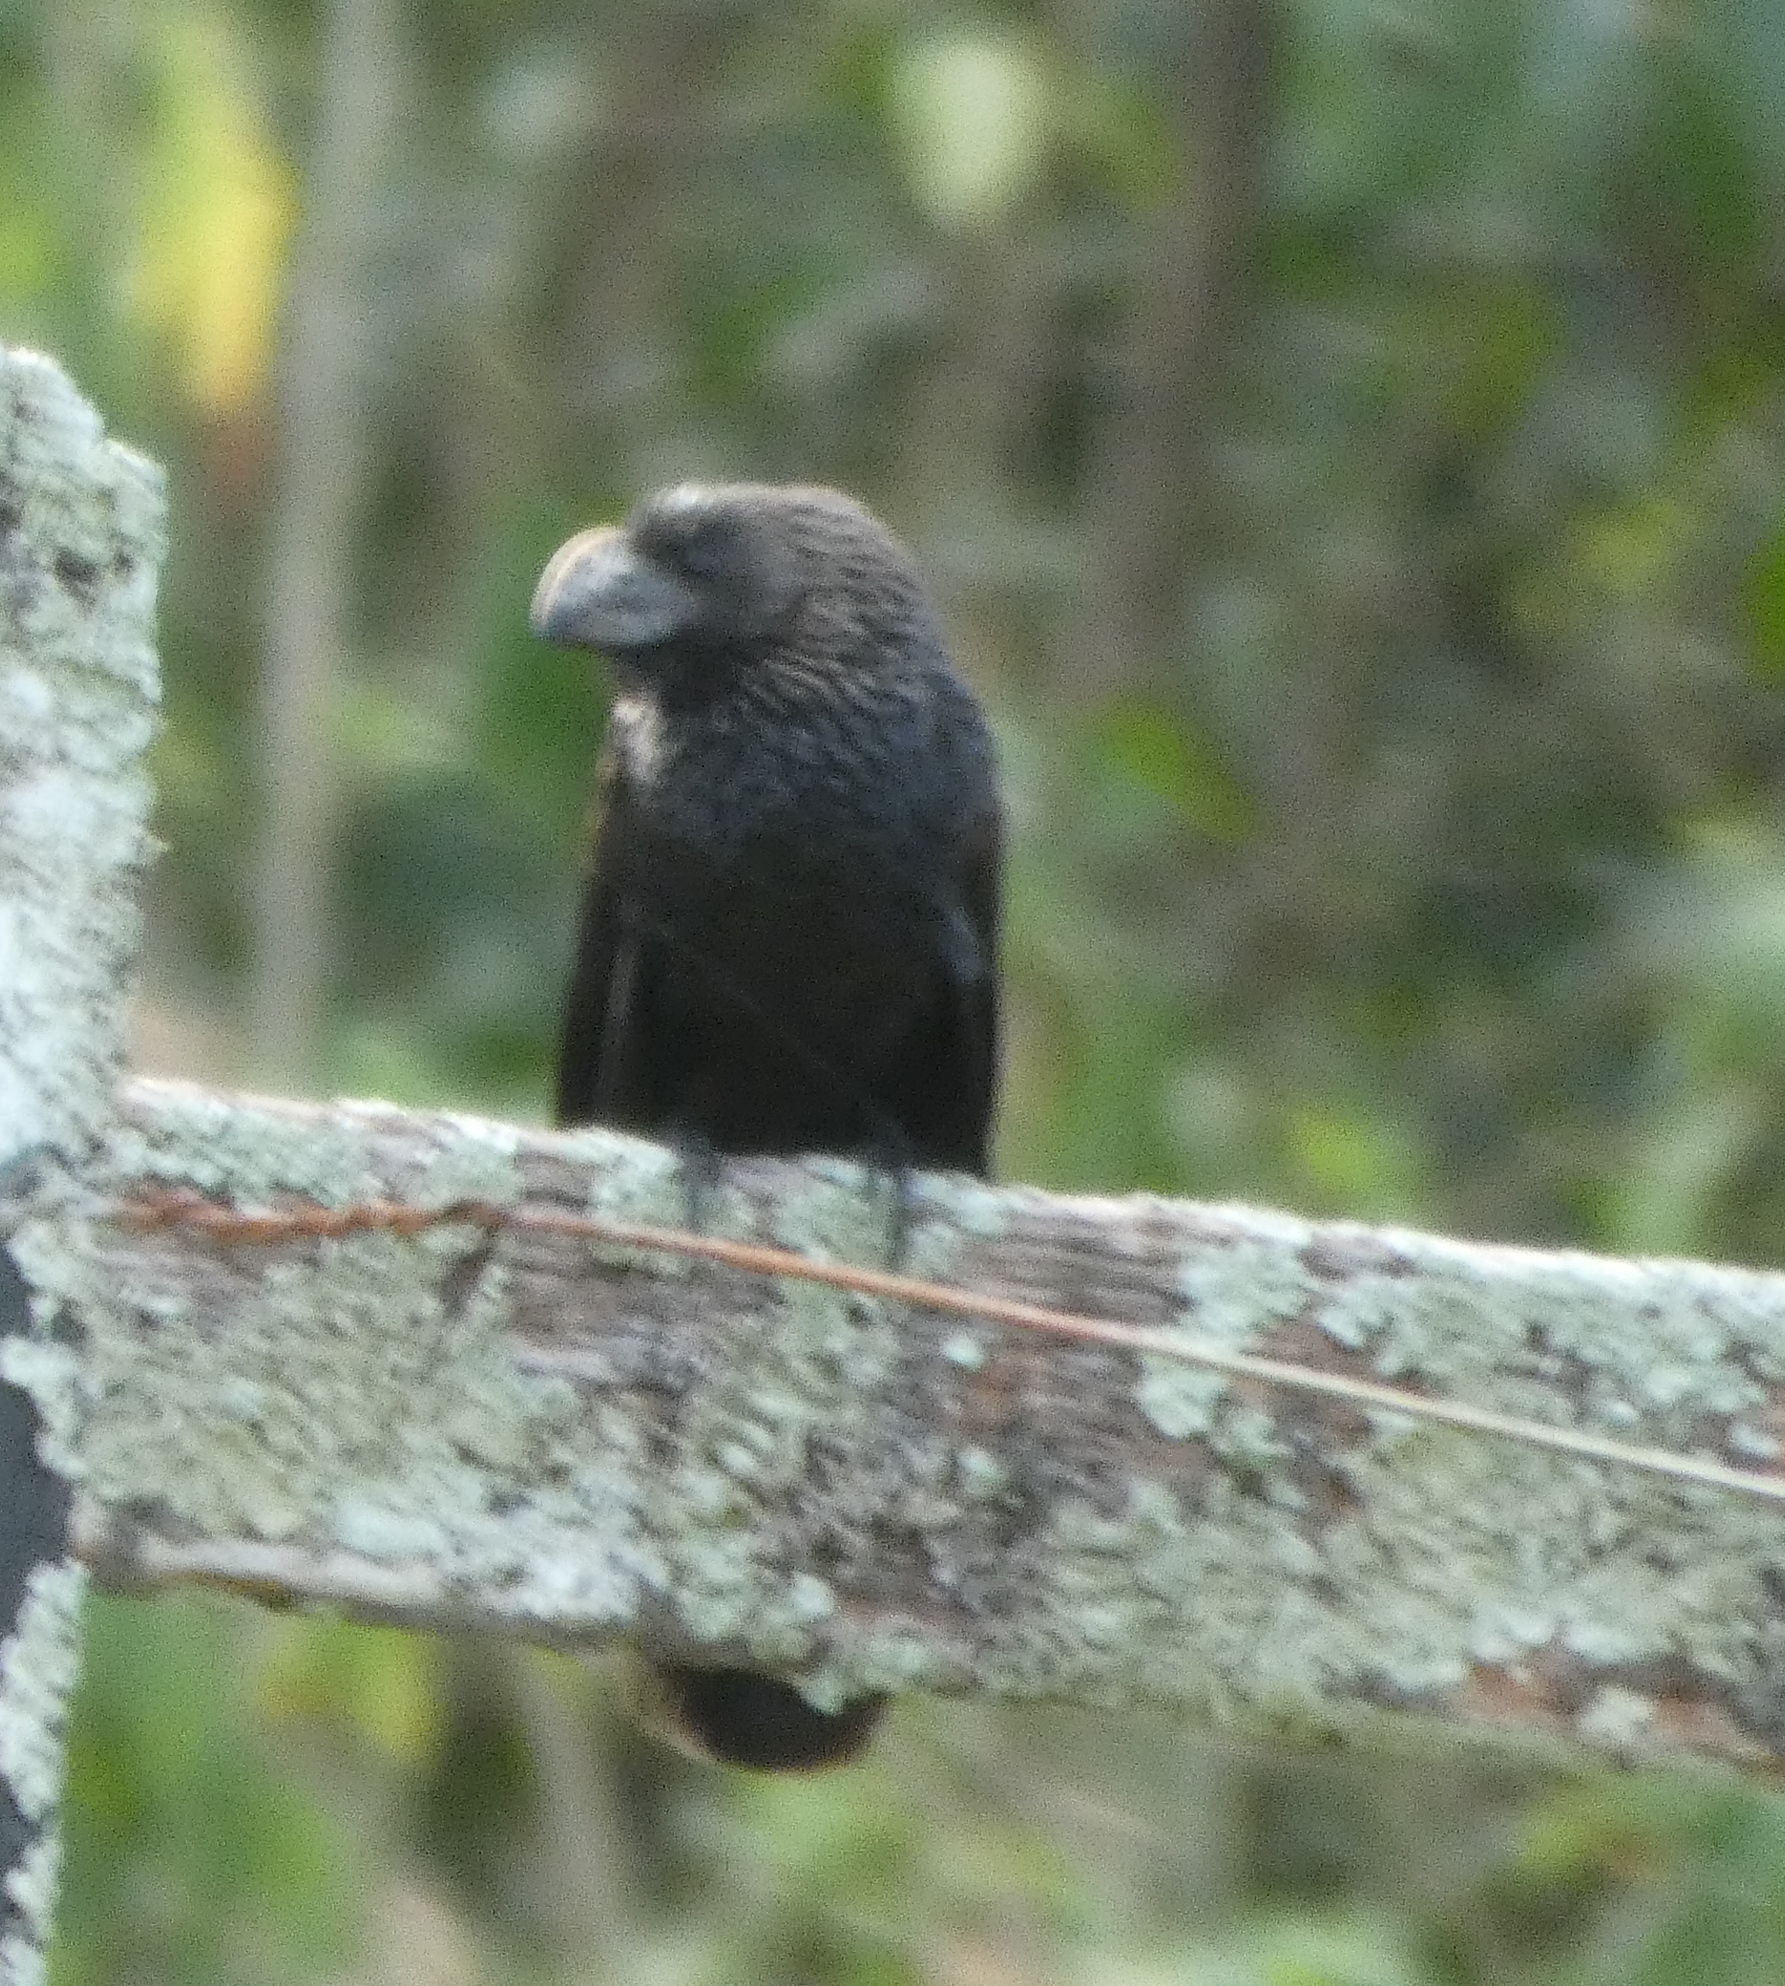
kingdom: Animalia
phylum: Chordata
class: Aves
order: Cuculiformes
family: Cuculidae
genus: Crotophaga
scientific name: Crotophaga ani
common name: Smooth-billed ani
